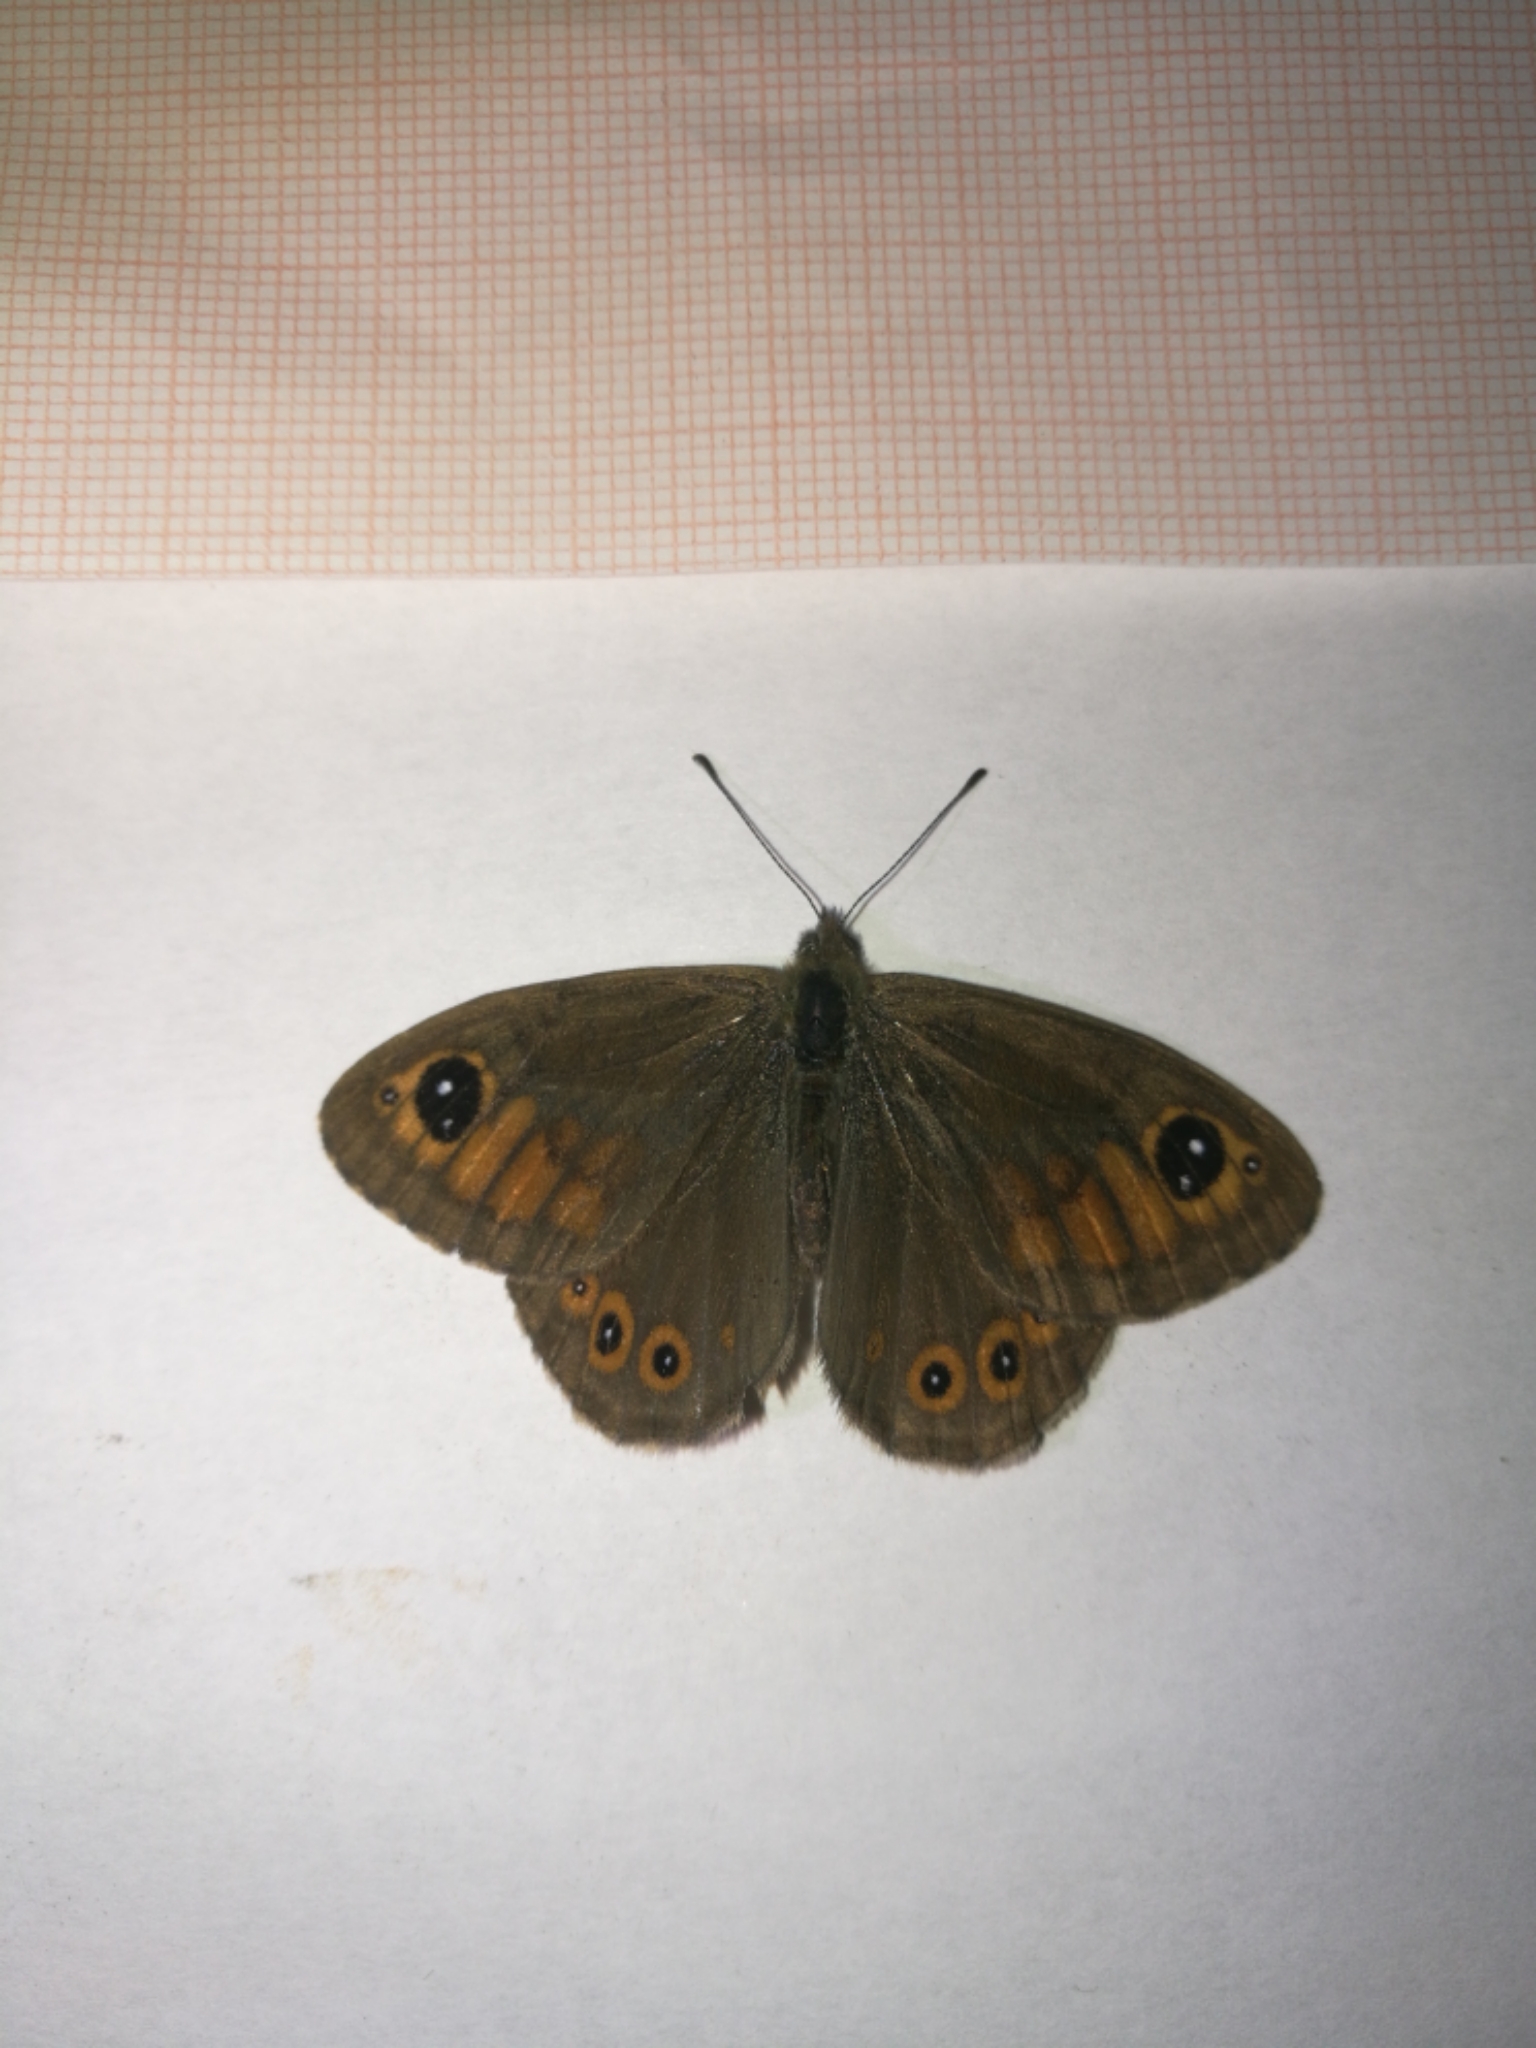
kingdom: Animalia
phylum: Arthropoda
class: Insecta
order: Lepidoptera
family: Nymphalidae
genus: Pararge
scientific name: Pararge Lasiommata maera
